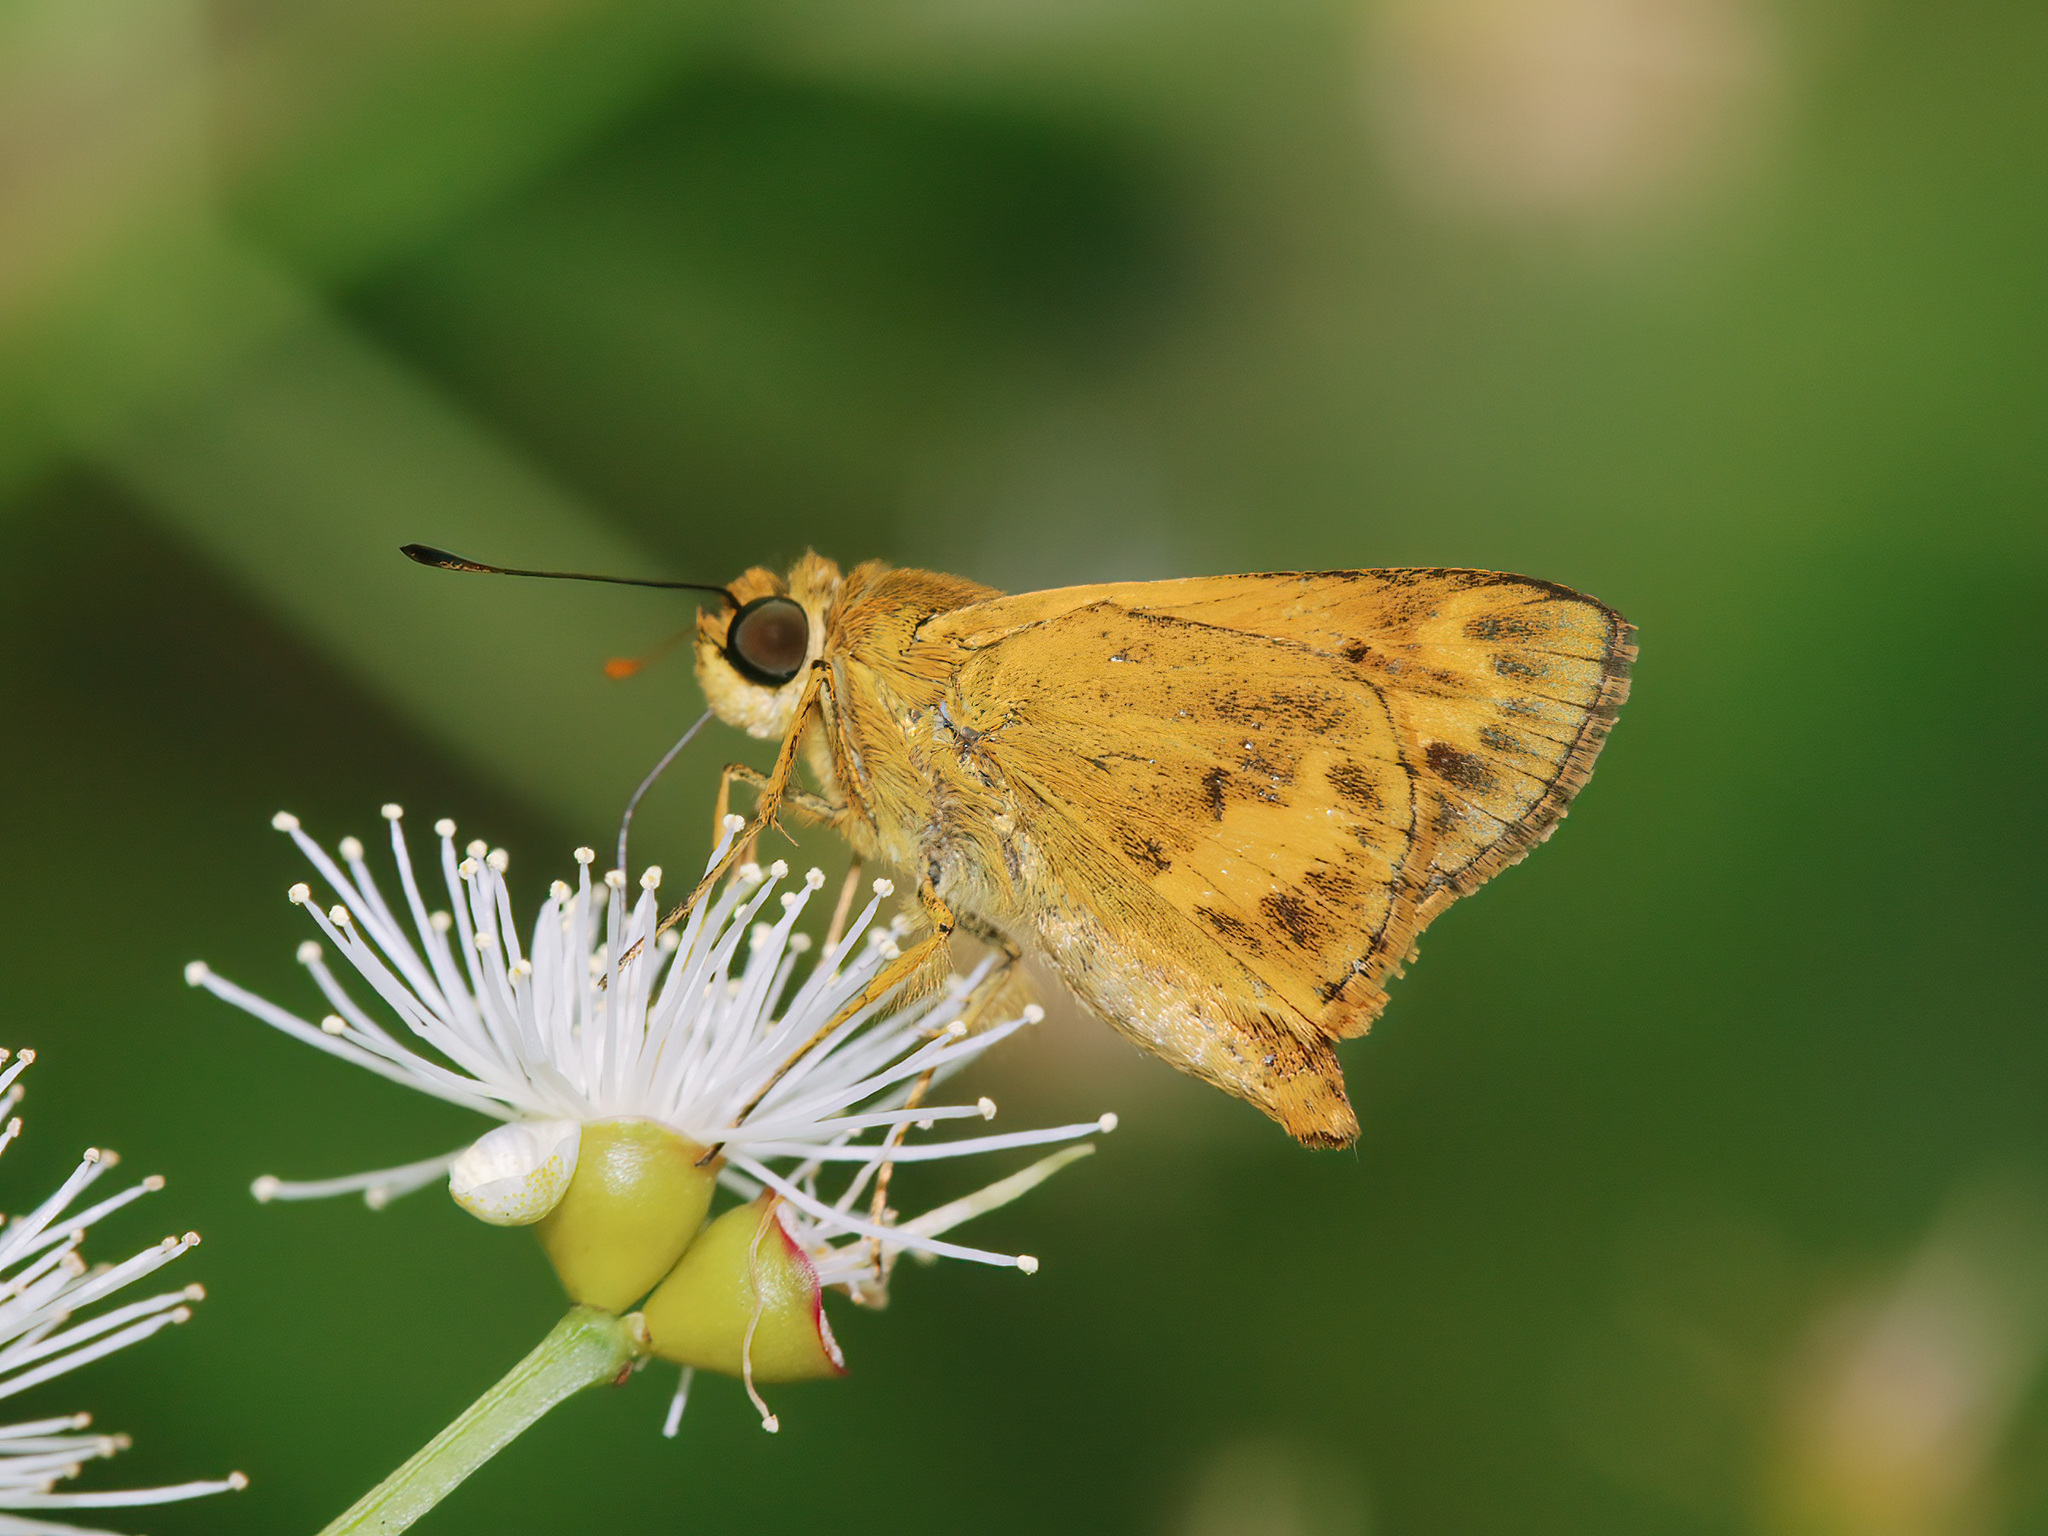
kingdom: Animalia
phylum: Arthropoda
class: Insecta
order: Lepidoptera
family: Hesperiidae
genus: Oriens
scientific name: Oriens gola
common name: Common dartlet
